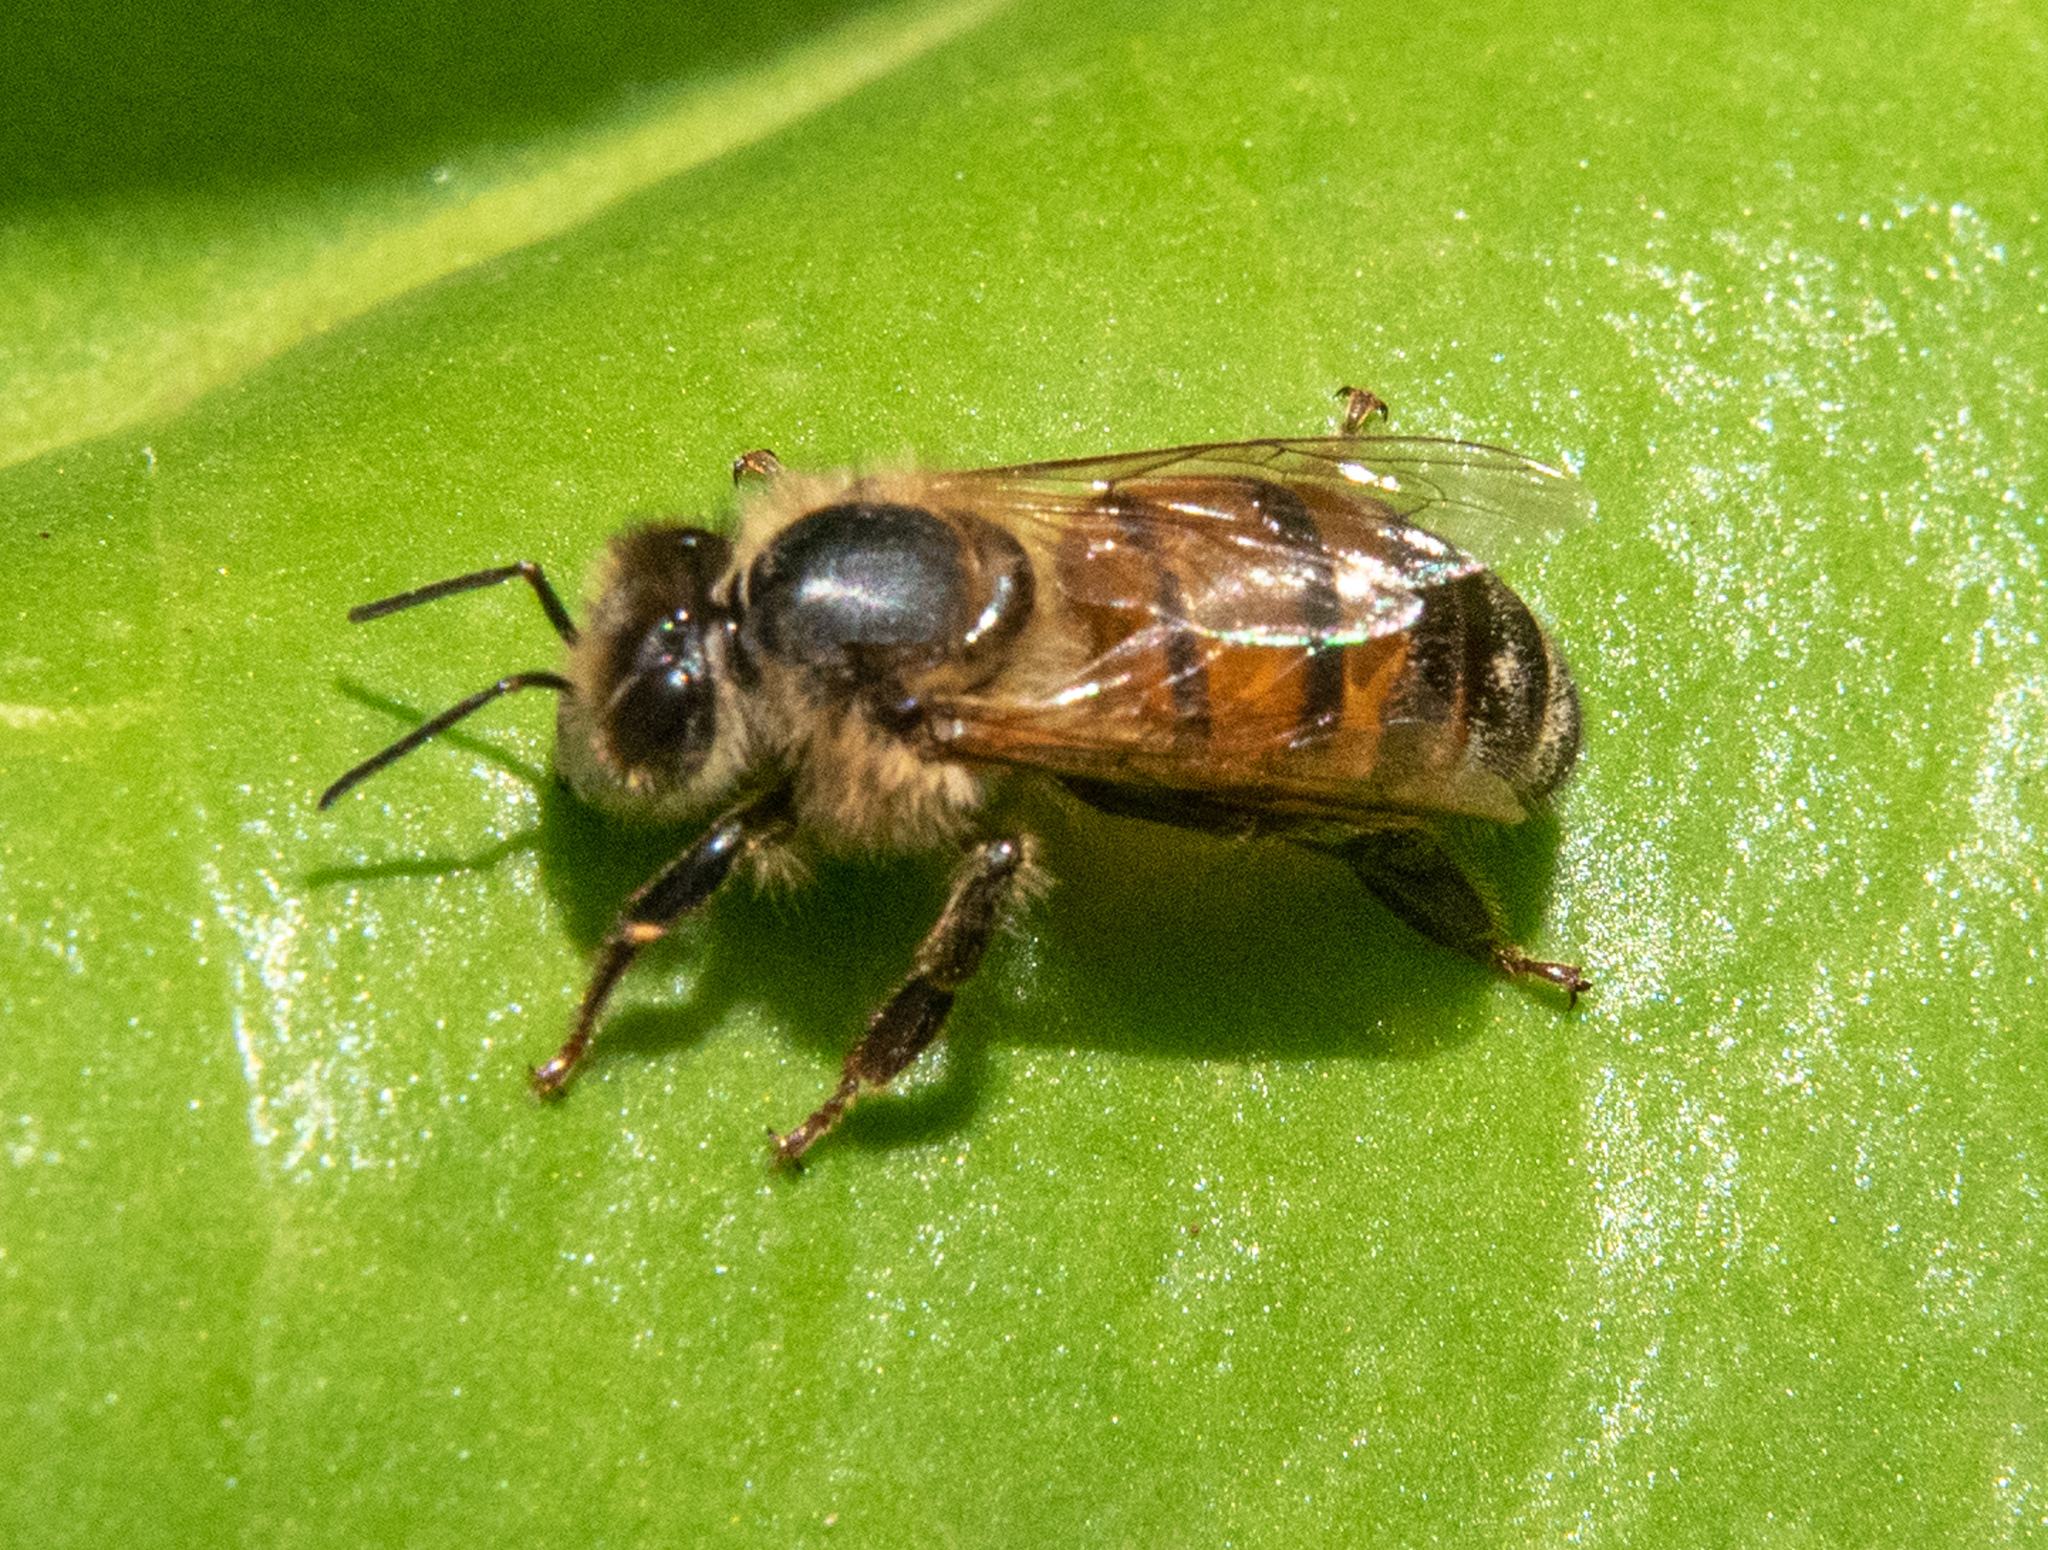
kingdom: Animalia
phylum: Arthropoda
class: Insecta
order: Hymenoptera
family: Apidae
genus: Apis
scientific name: Apis mellifera
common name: Honey bee
